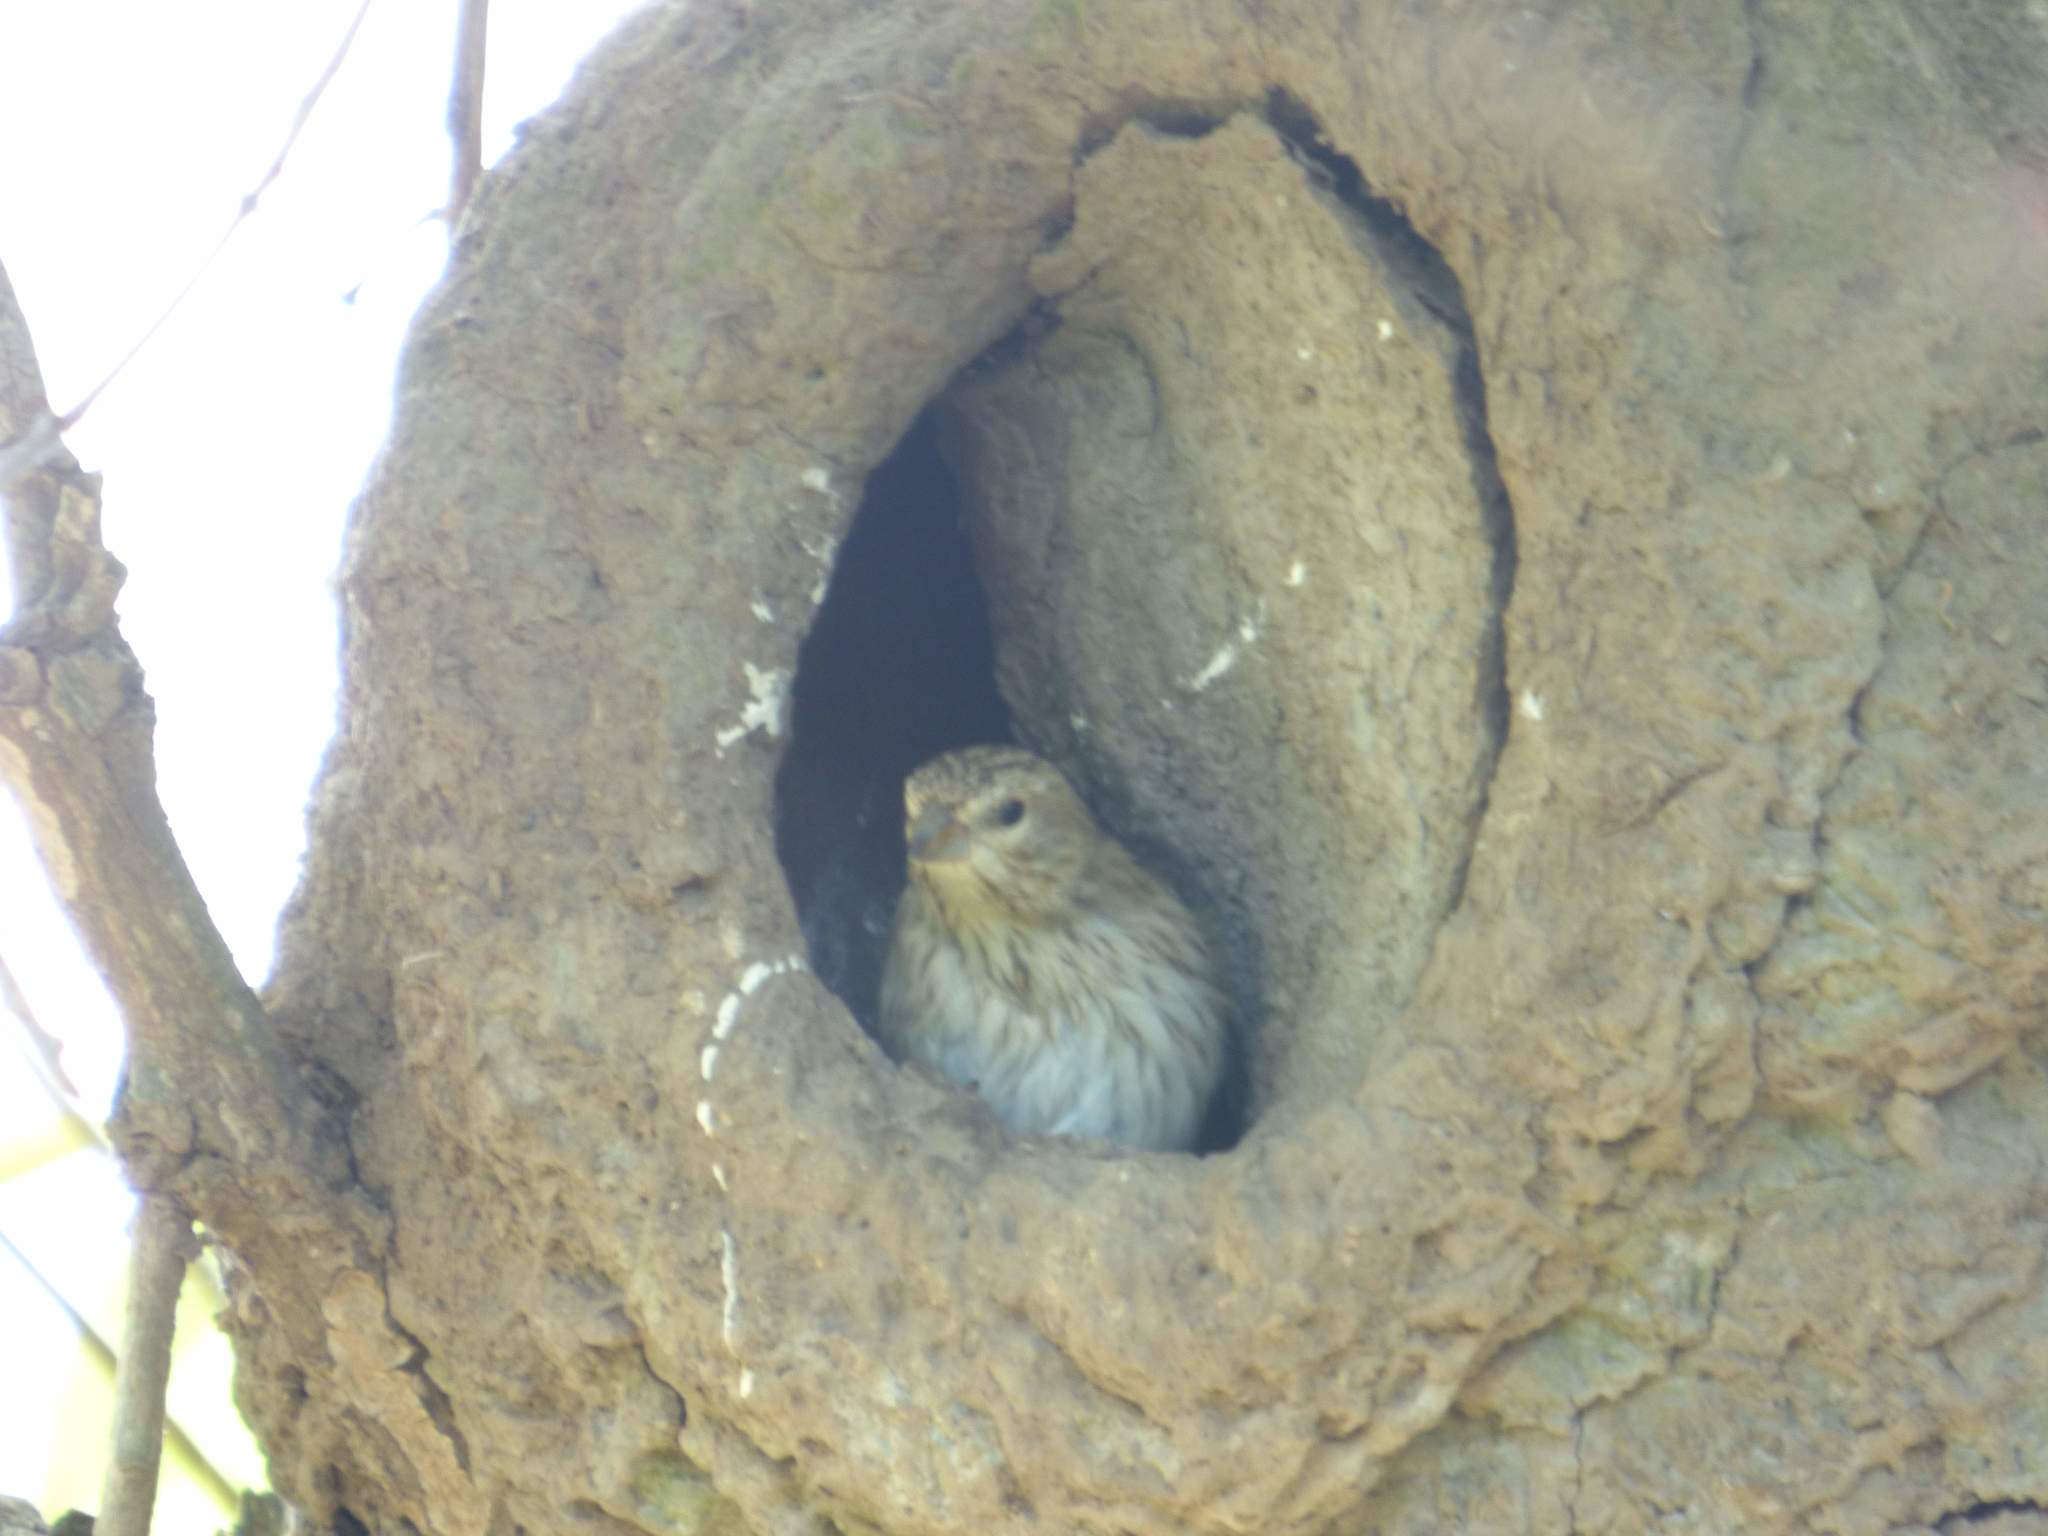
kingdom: Animalia
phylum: Chordata
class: Aves
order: Passeriformes
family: Thraupidae
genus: Sicalis
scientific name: Sicalis flaveola
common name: Saffron finch
